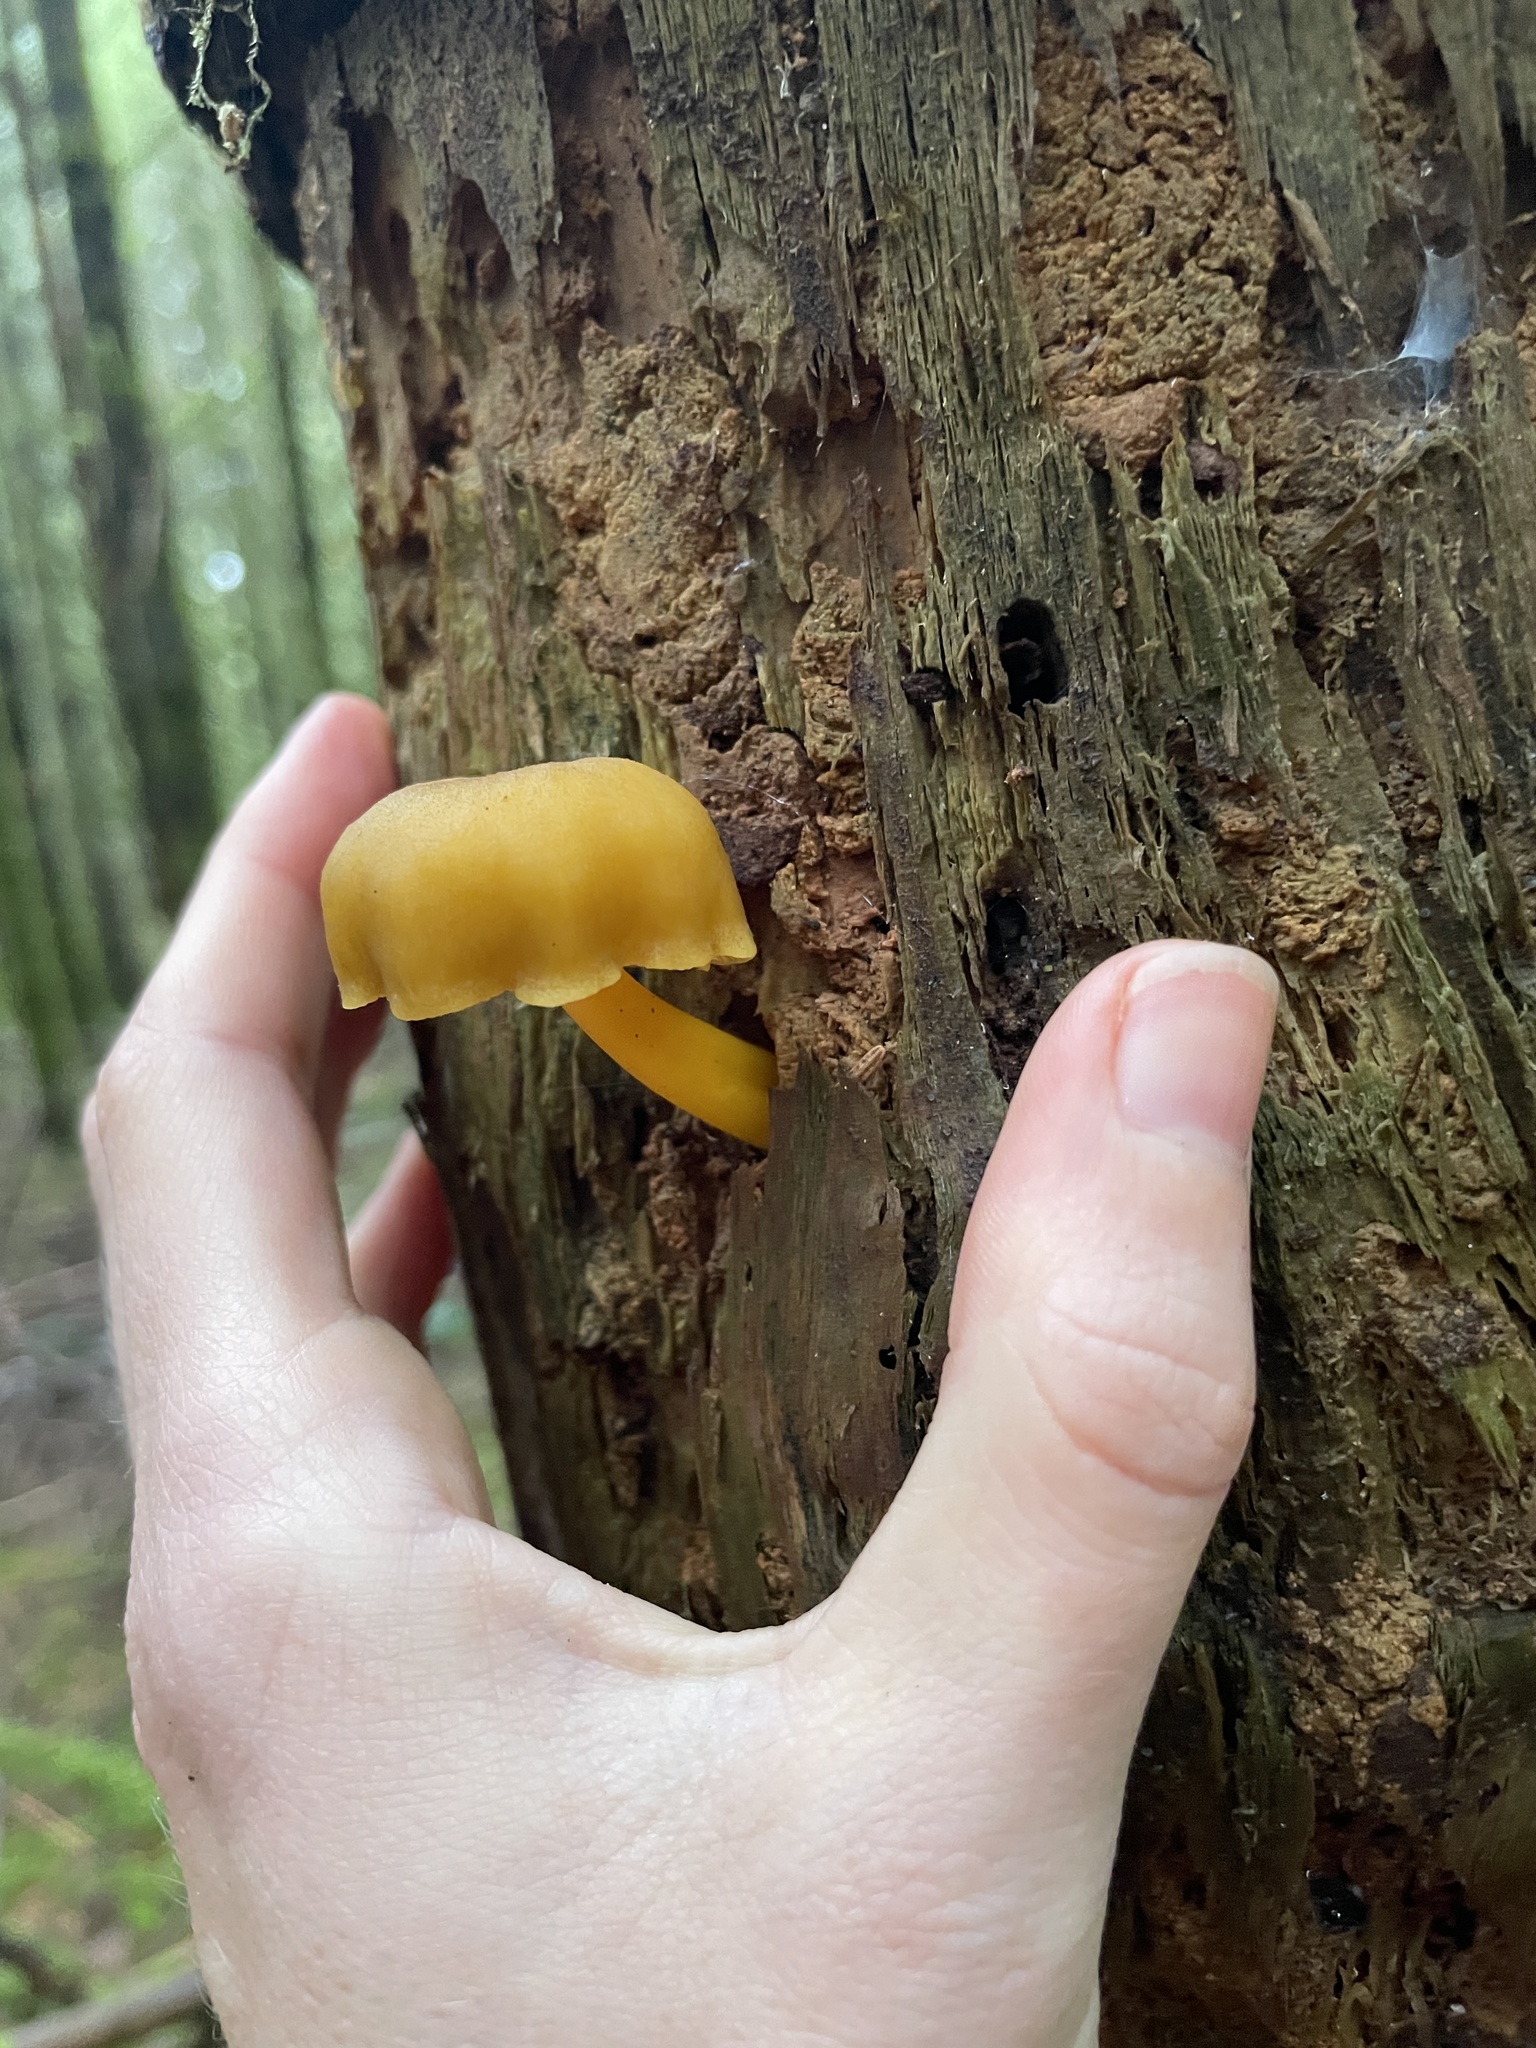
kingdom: Fungi
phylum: Basidiomycota
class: Agaricomycetes
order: Agaricales
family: Hygrophoraceae
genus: Chrysomphalina
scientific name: Chrysomphalina chrysophylla
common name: Golden navel
